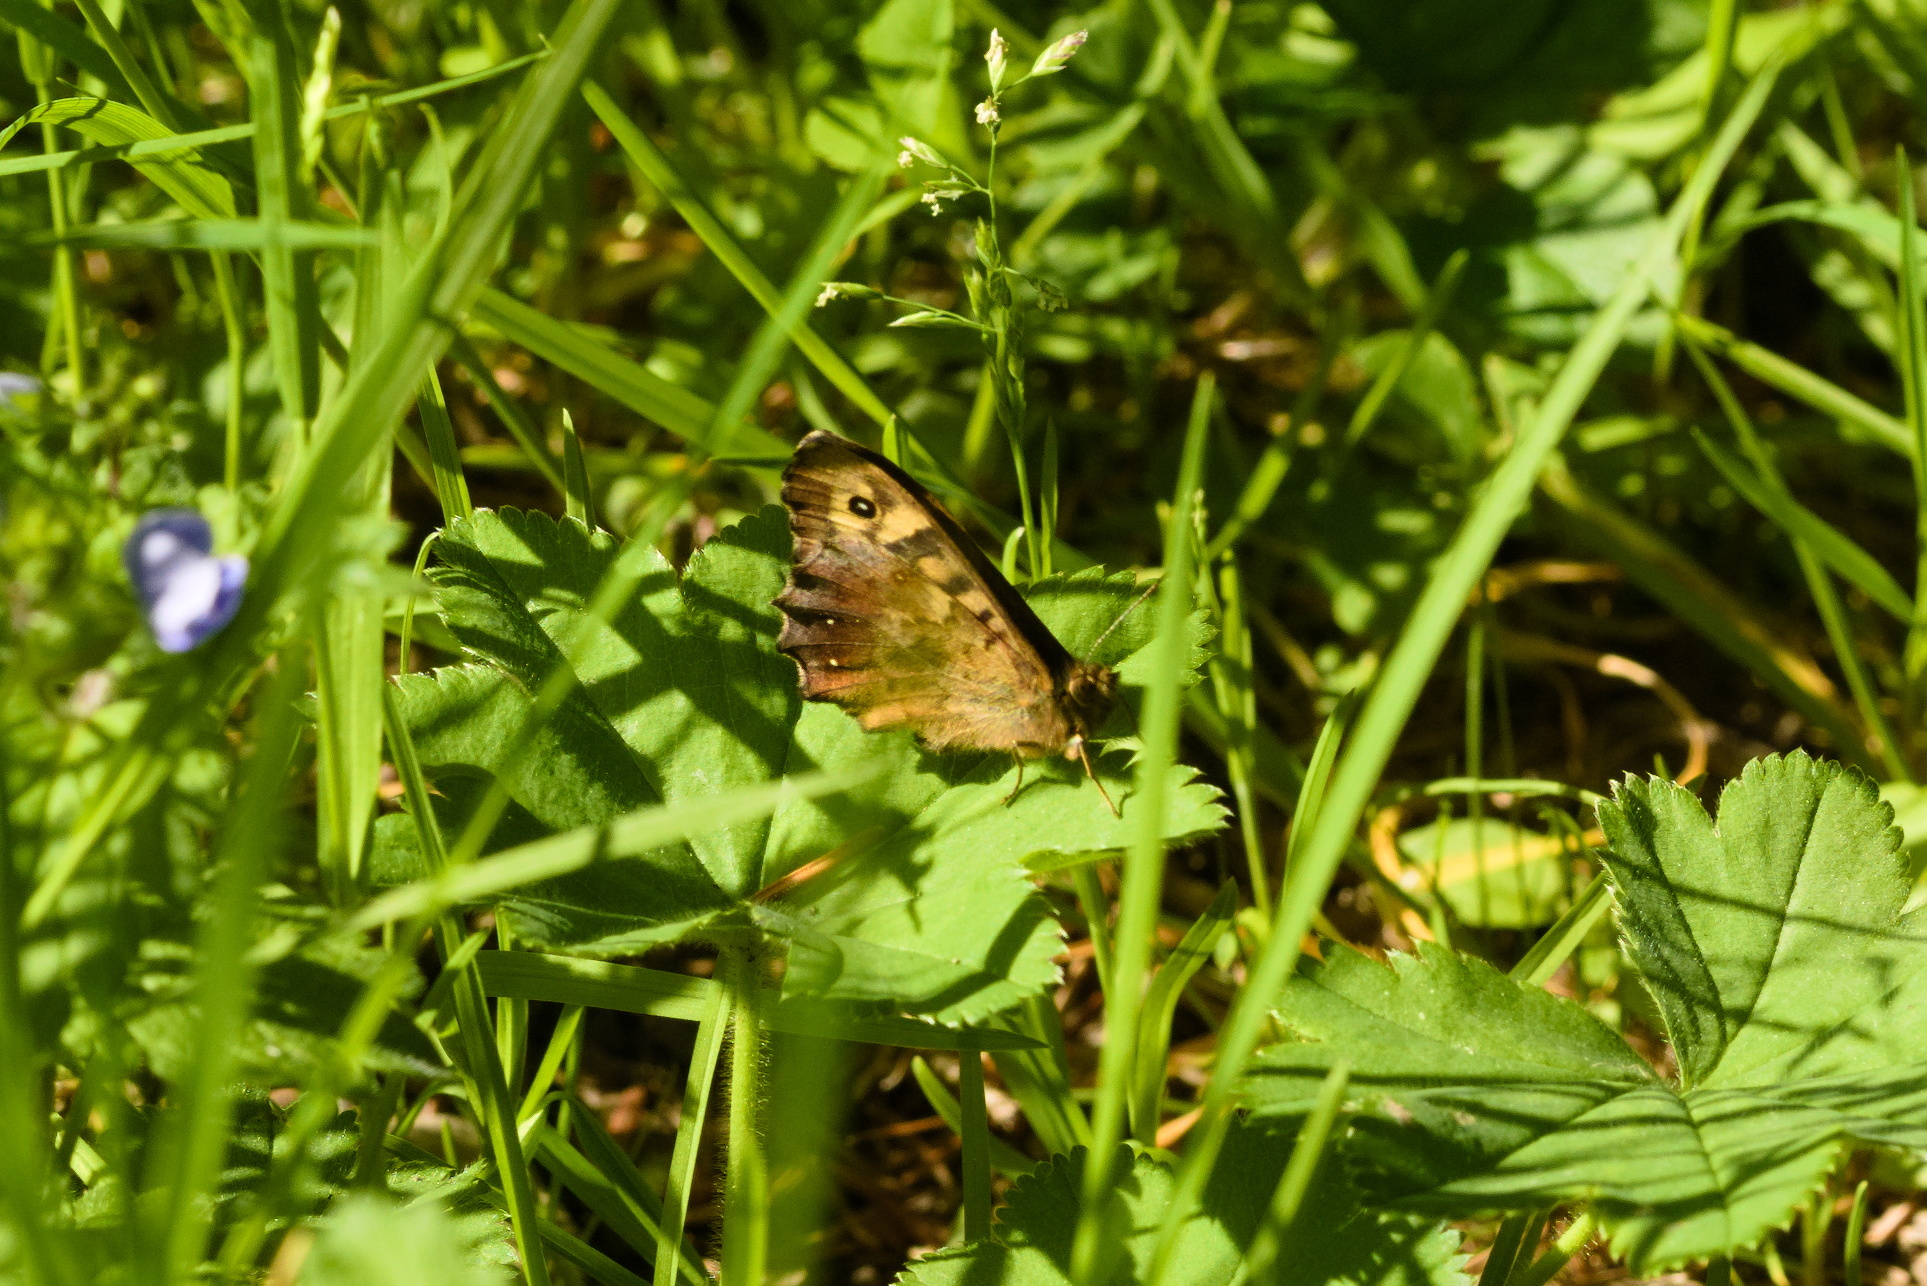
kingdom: Animalia
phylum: Arthropoda
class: Insecta
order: Lepidoptera
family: Nymphalidae
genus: Pararge
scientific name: Pararge aegeria
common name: Speckled wood
